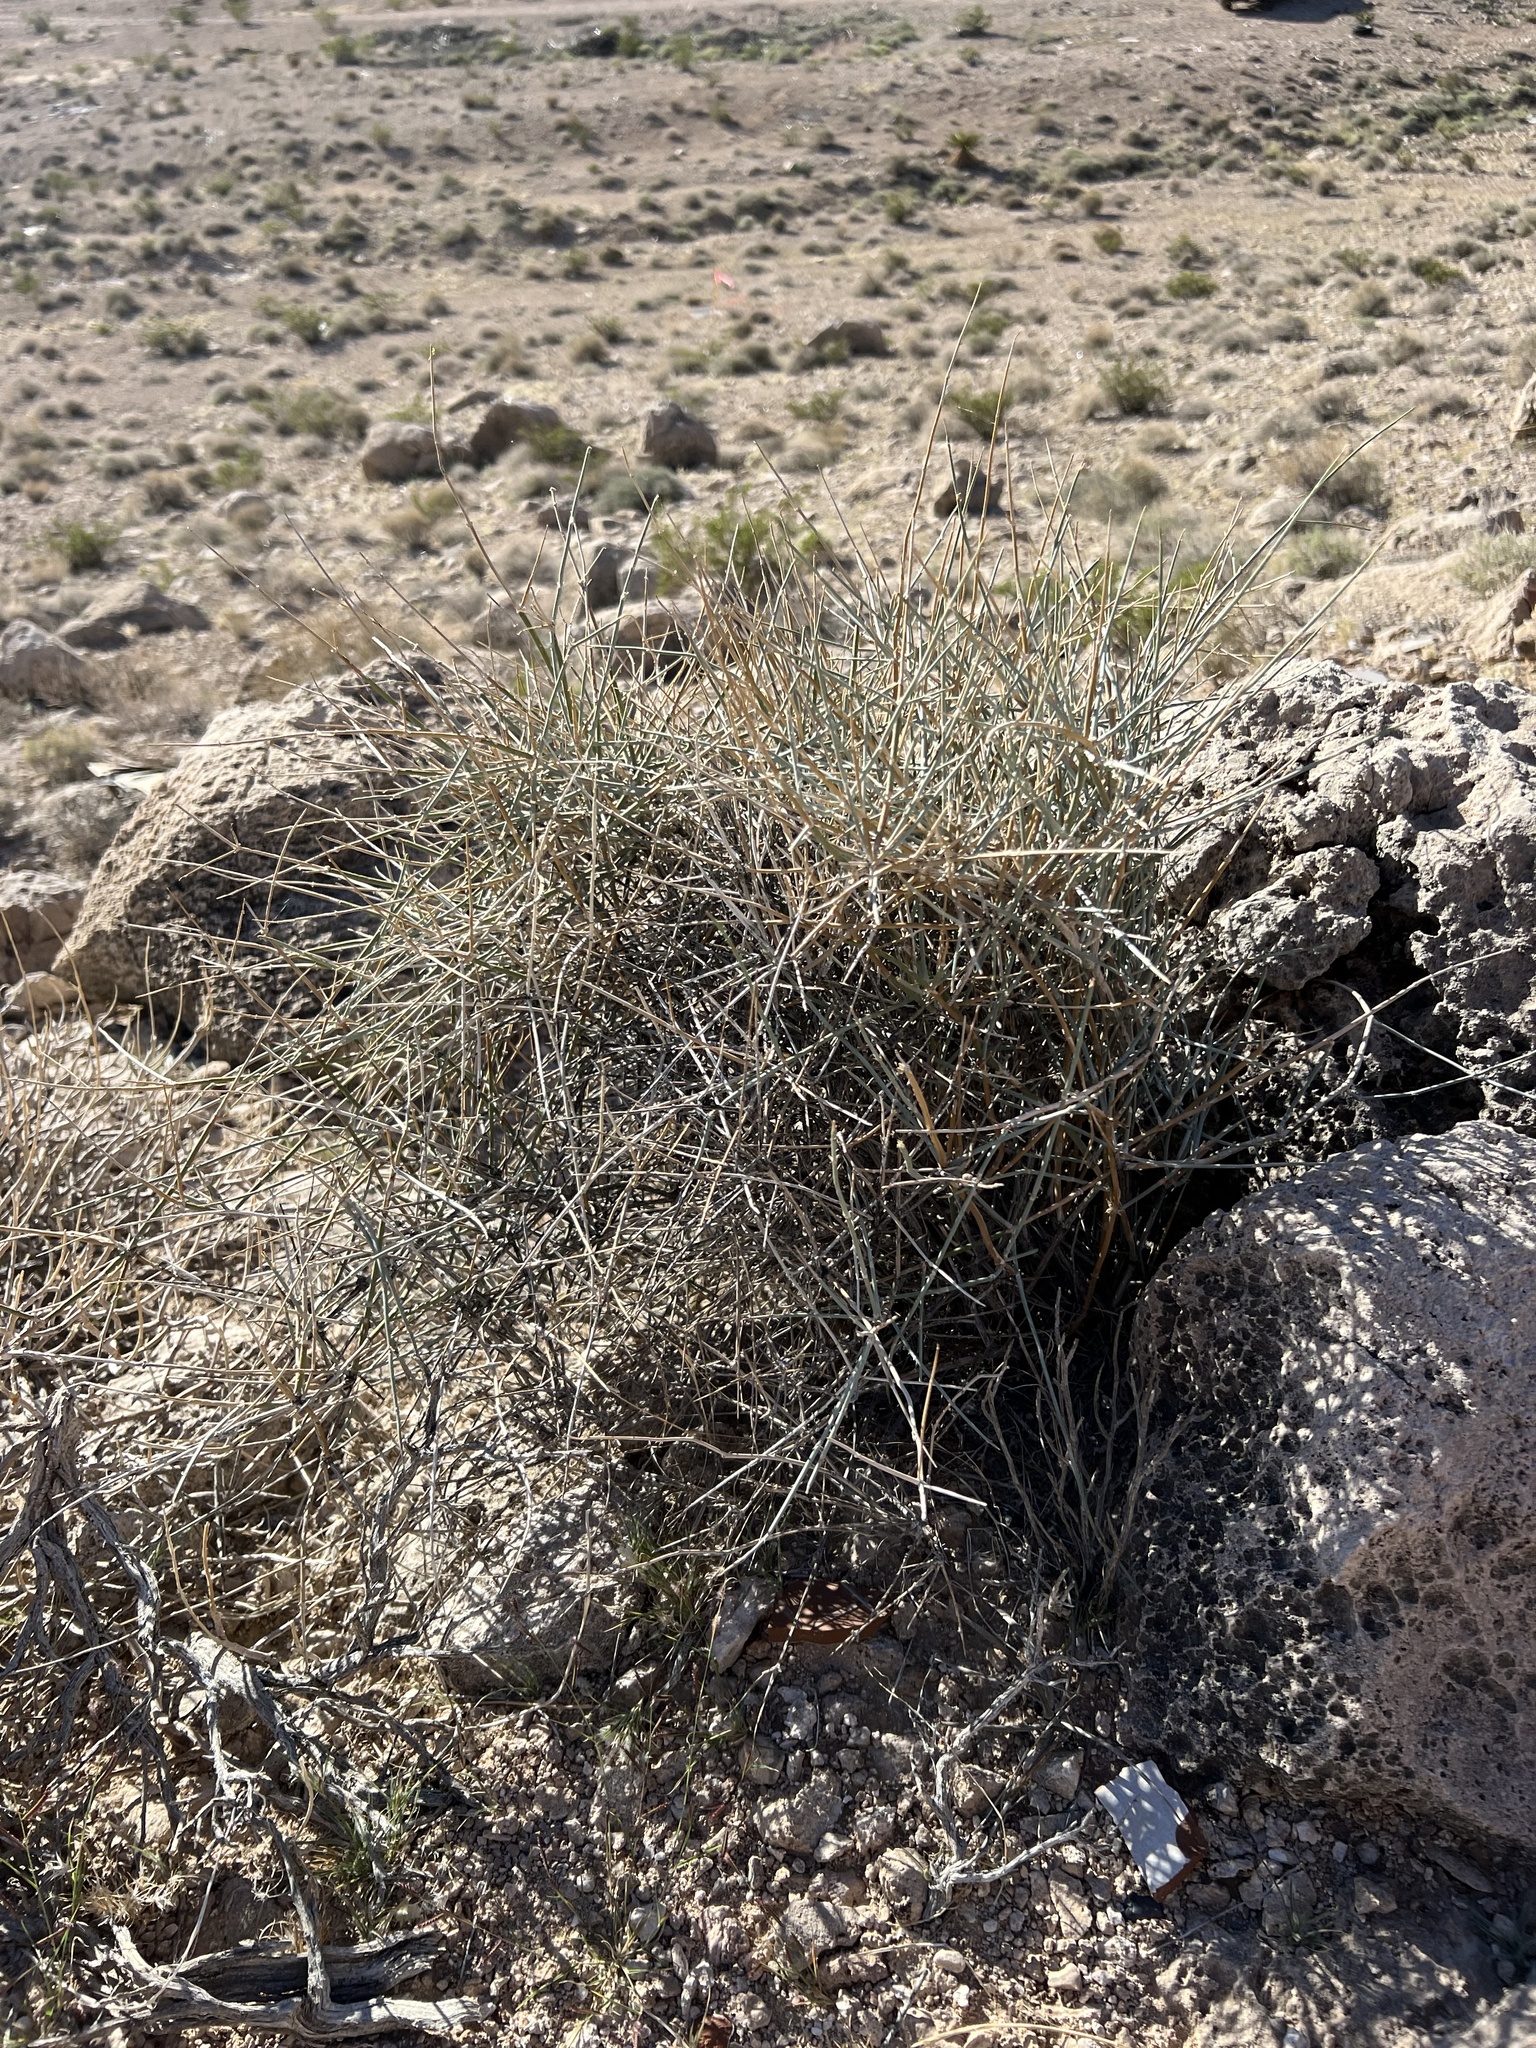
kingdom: Plantae
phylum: Tracheophyta
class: Gnetopsida
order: Ephedrales
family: Ephedraceae
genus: Ephedra
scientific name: Ephedra nevadensis
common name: Gray ephedra
